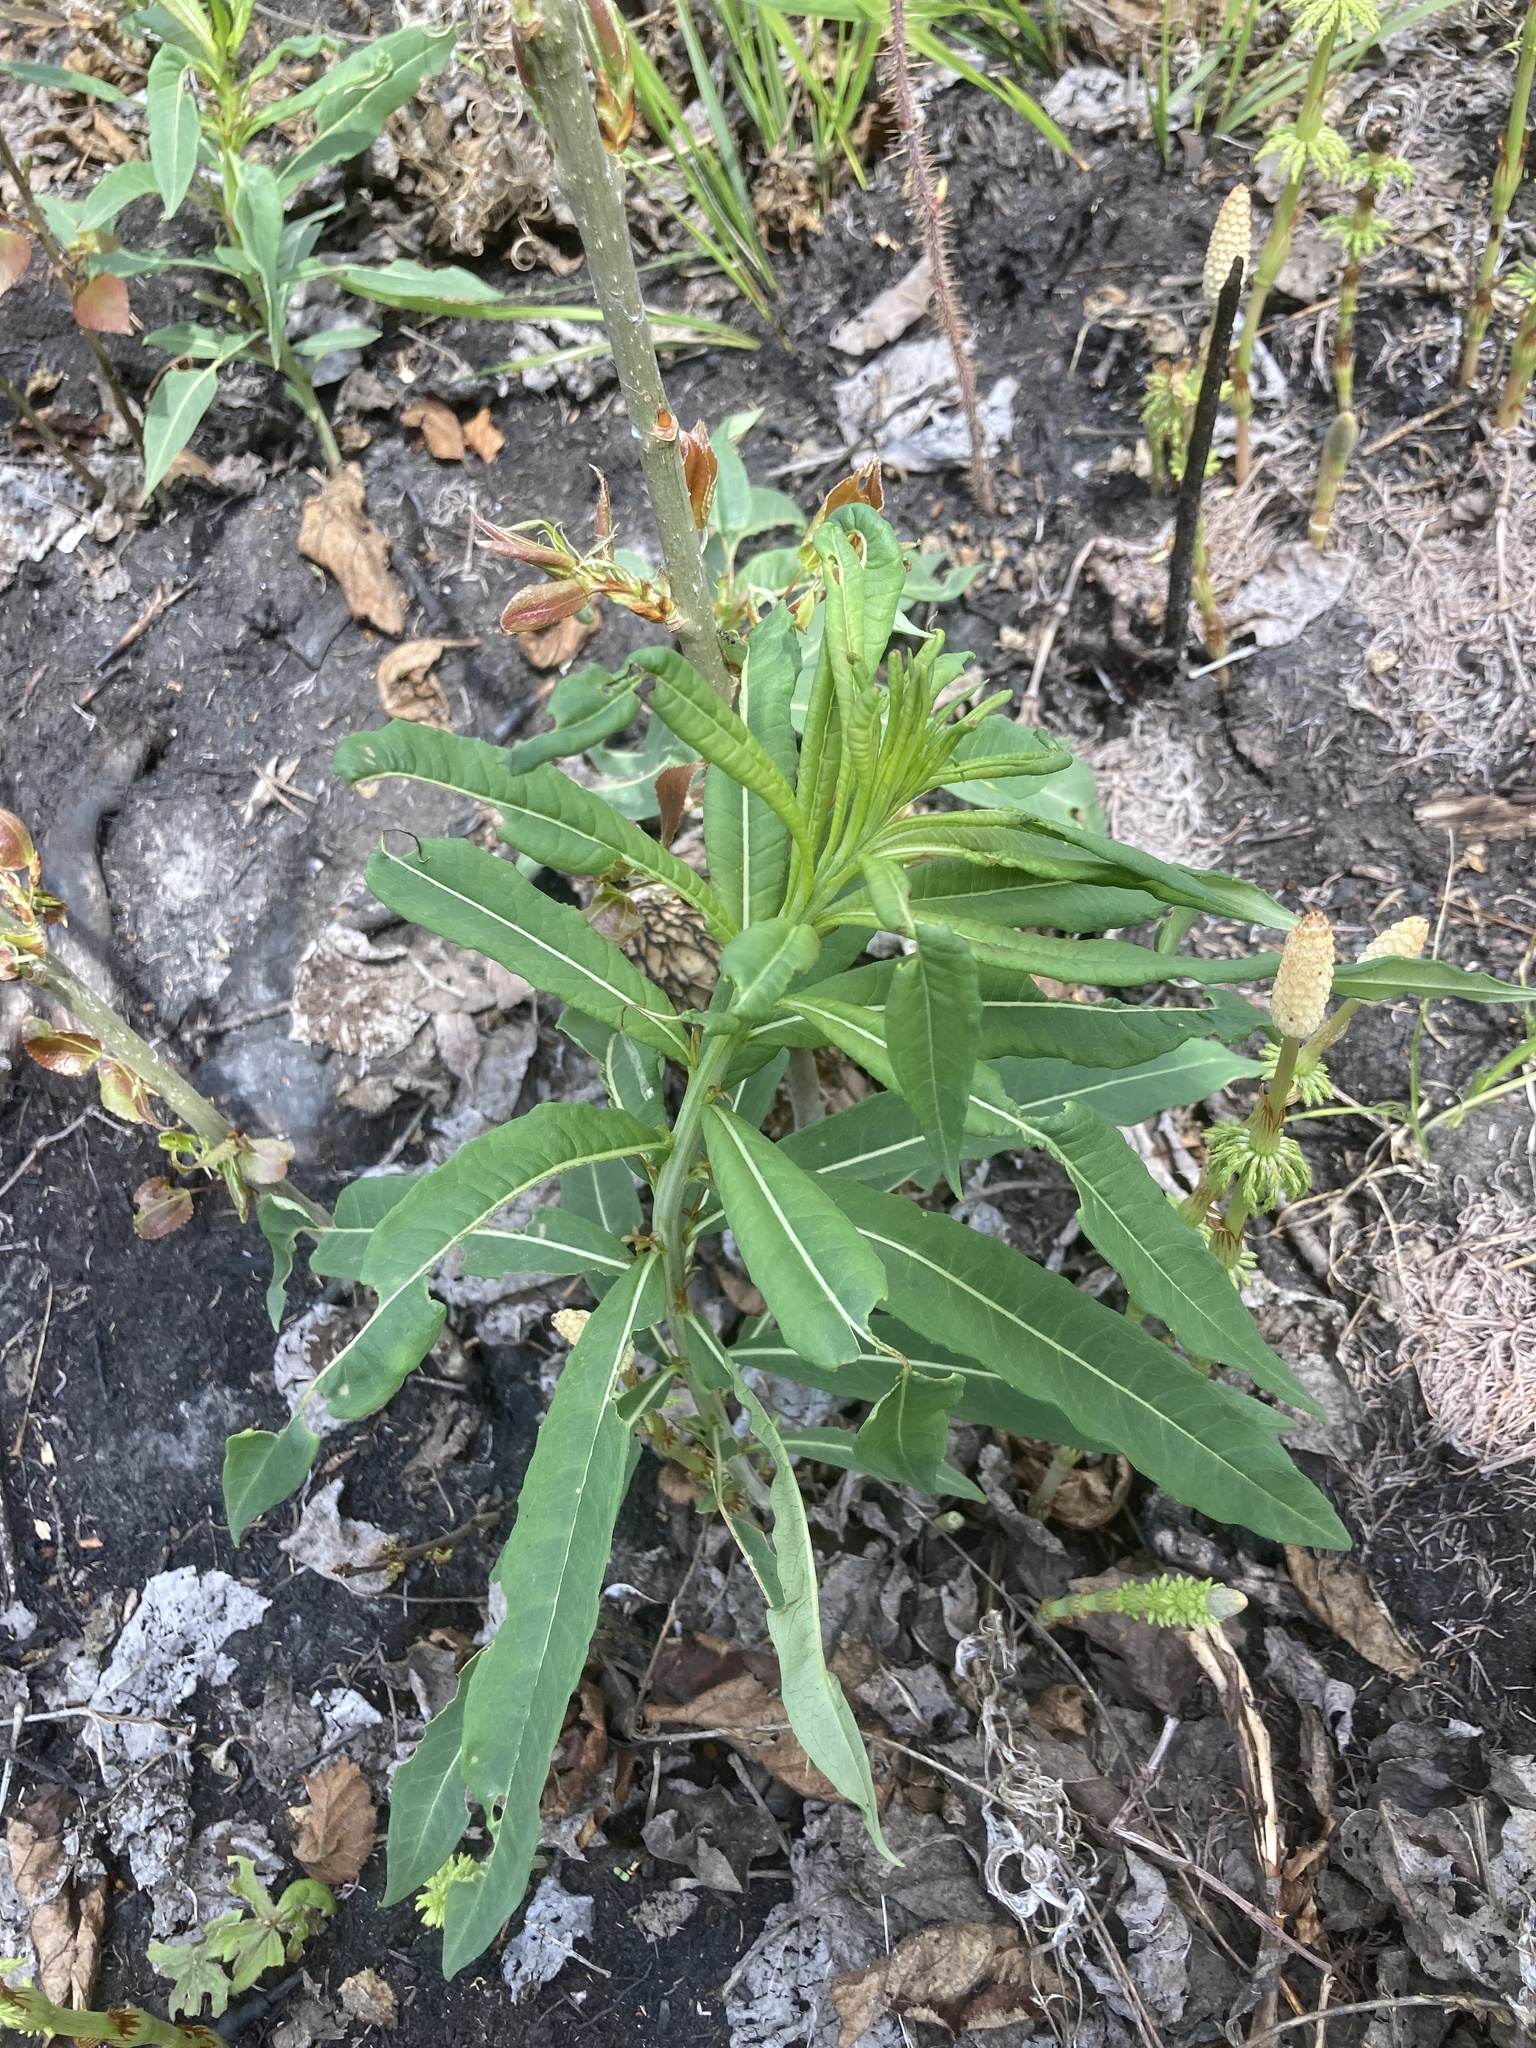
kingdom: Plantae
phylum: Tracheophyta
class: Magnoliopsida
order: Myrtales
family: Onagraceae
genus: Chamaenerion
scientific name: Chamaenerion angustifolium
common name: Fireweed
